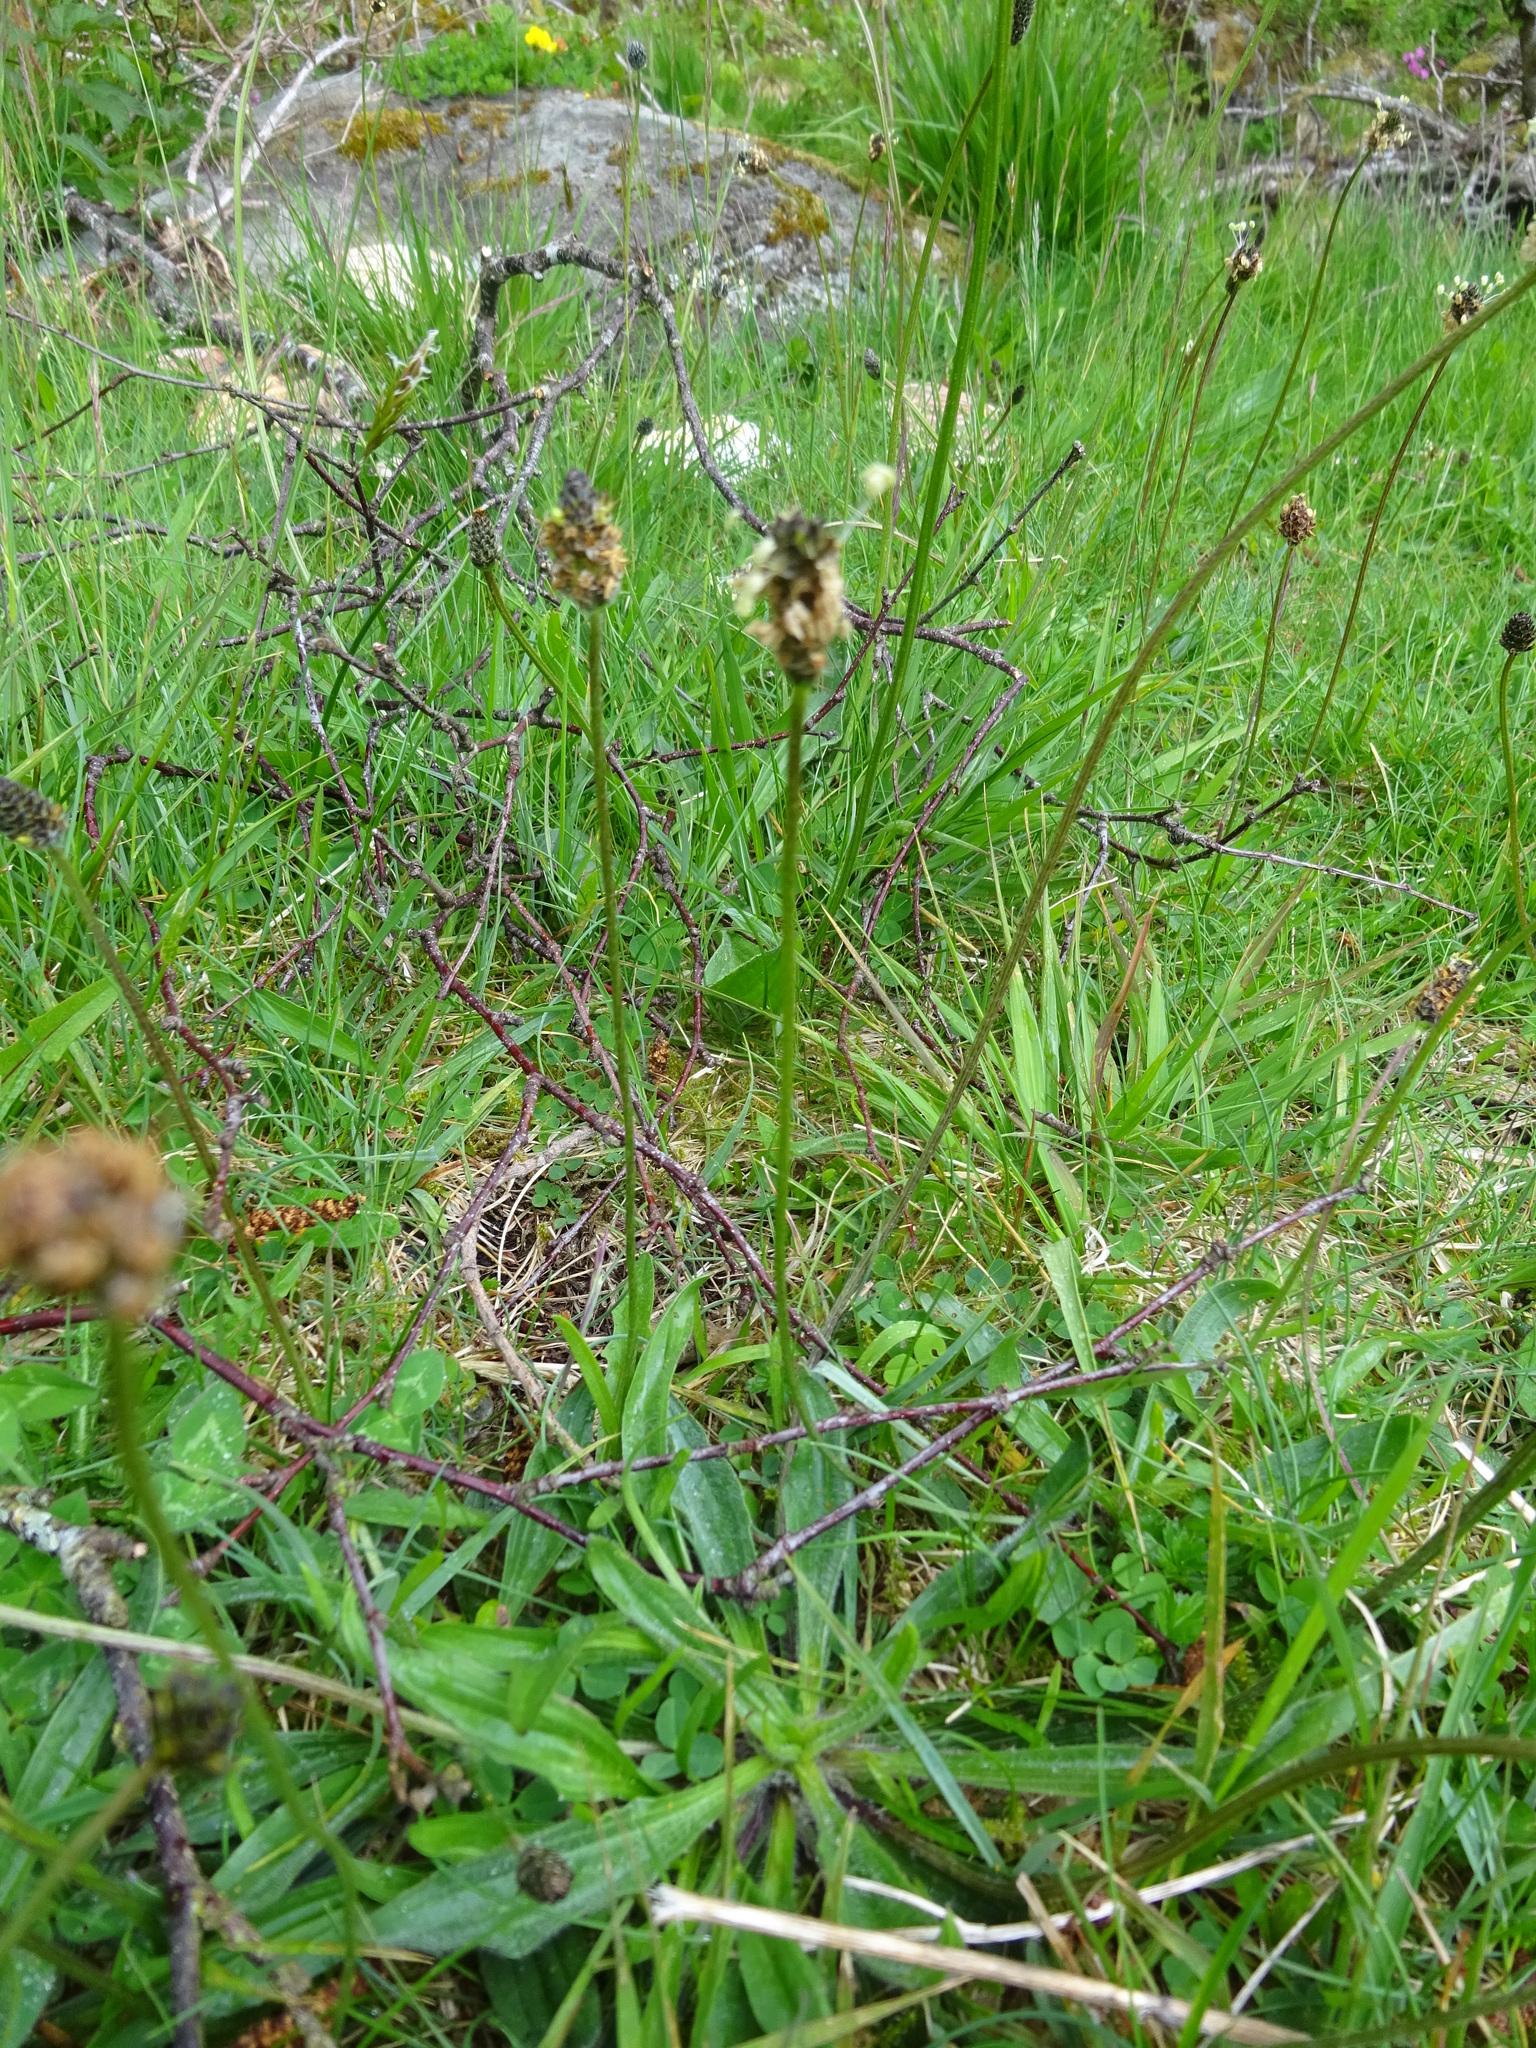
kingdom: Plantae
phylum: Tracheophyta
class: Magnoliopsida
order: Lamiales
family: Plantaginaceae
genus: Plantago
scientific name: Plantago lanceolata
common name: Ribwort plantain
